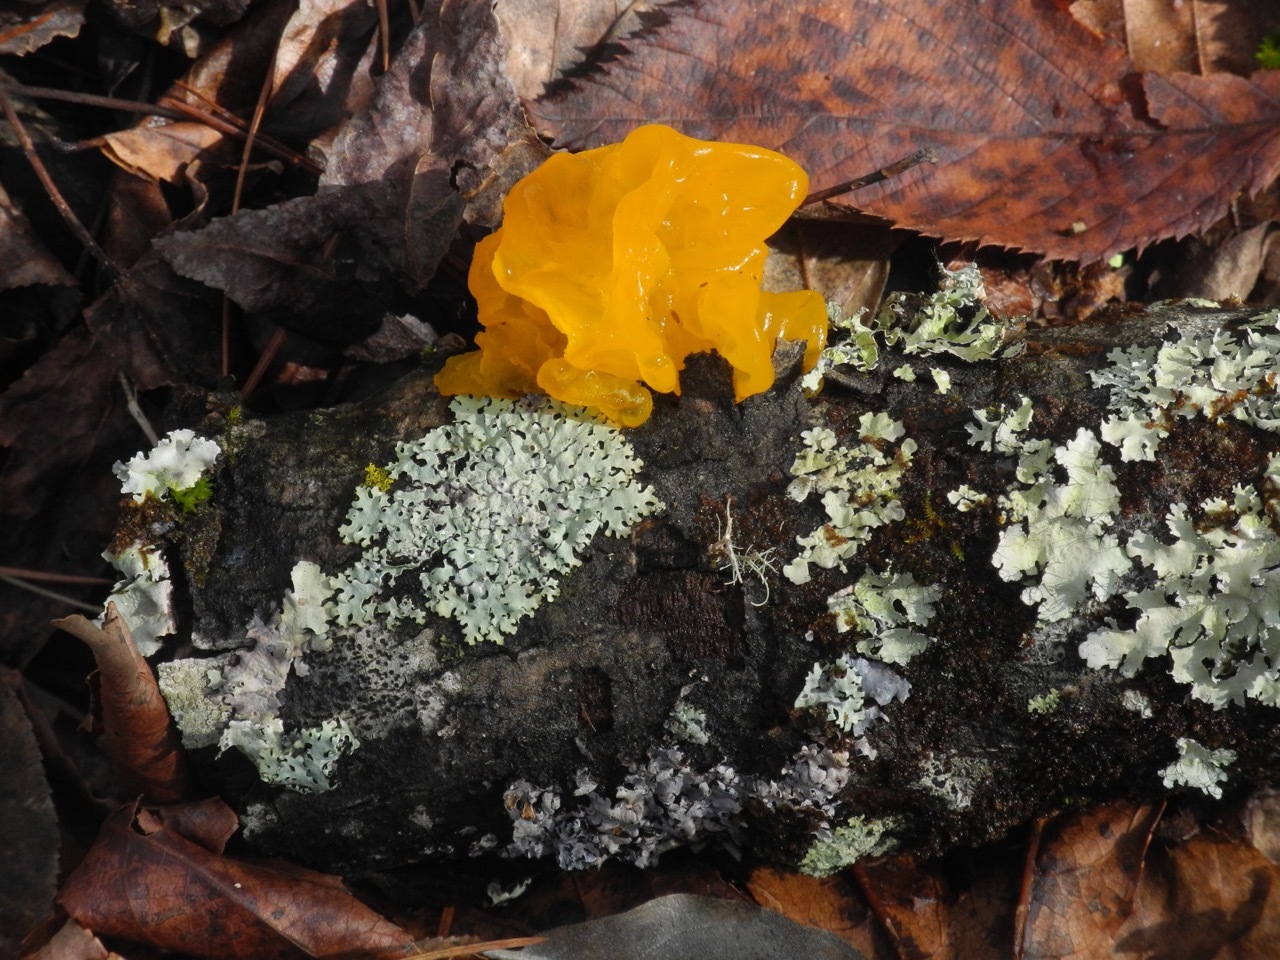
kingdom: Fungi
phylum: Basidiomycota
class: Tremellomycetes
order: Tremellales
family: Tremellaceae
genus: Tremella
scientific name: Tremella mesenterica
